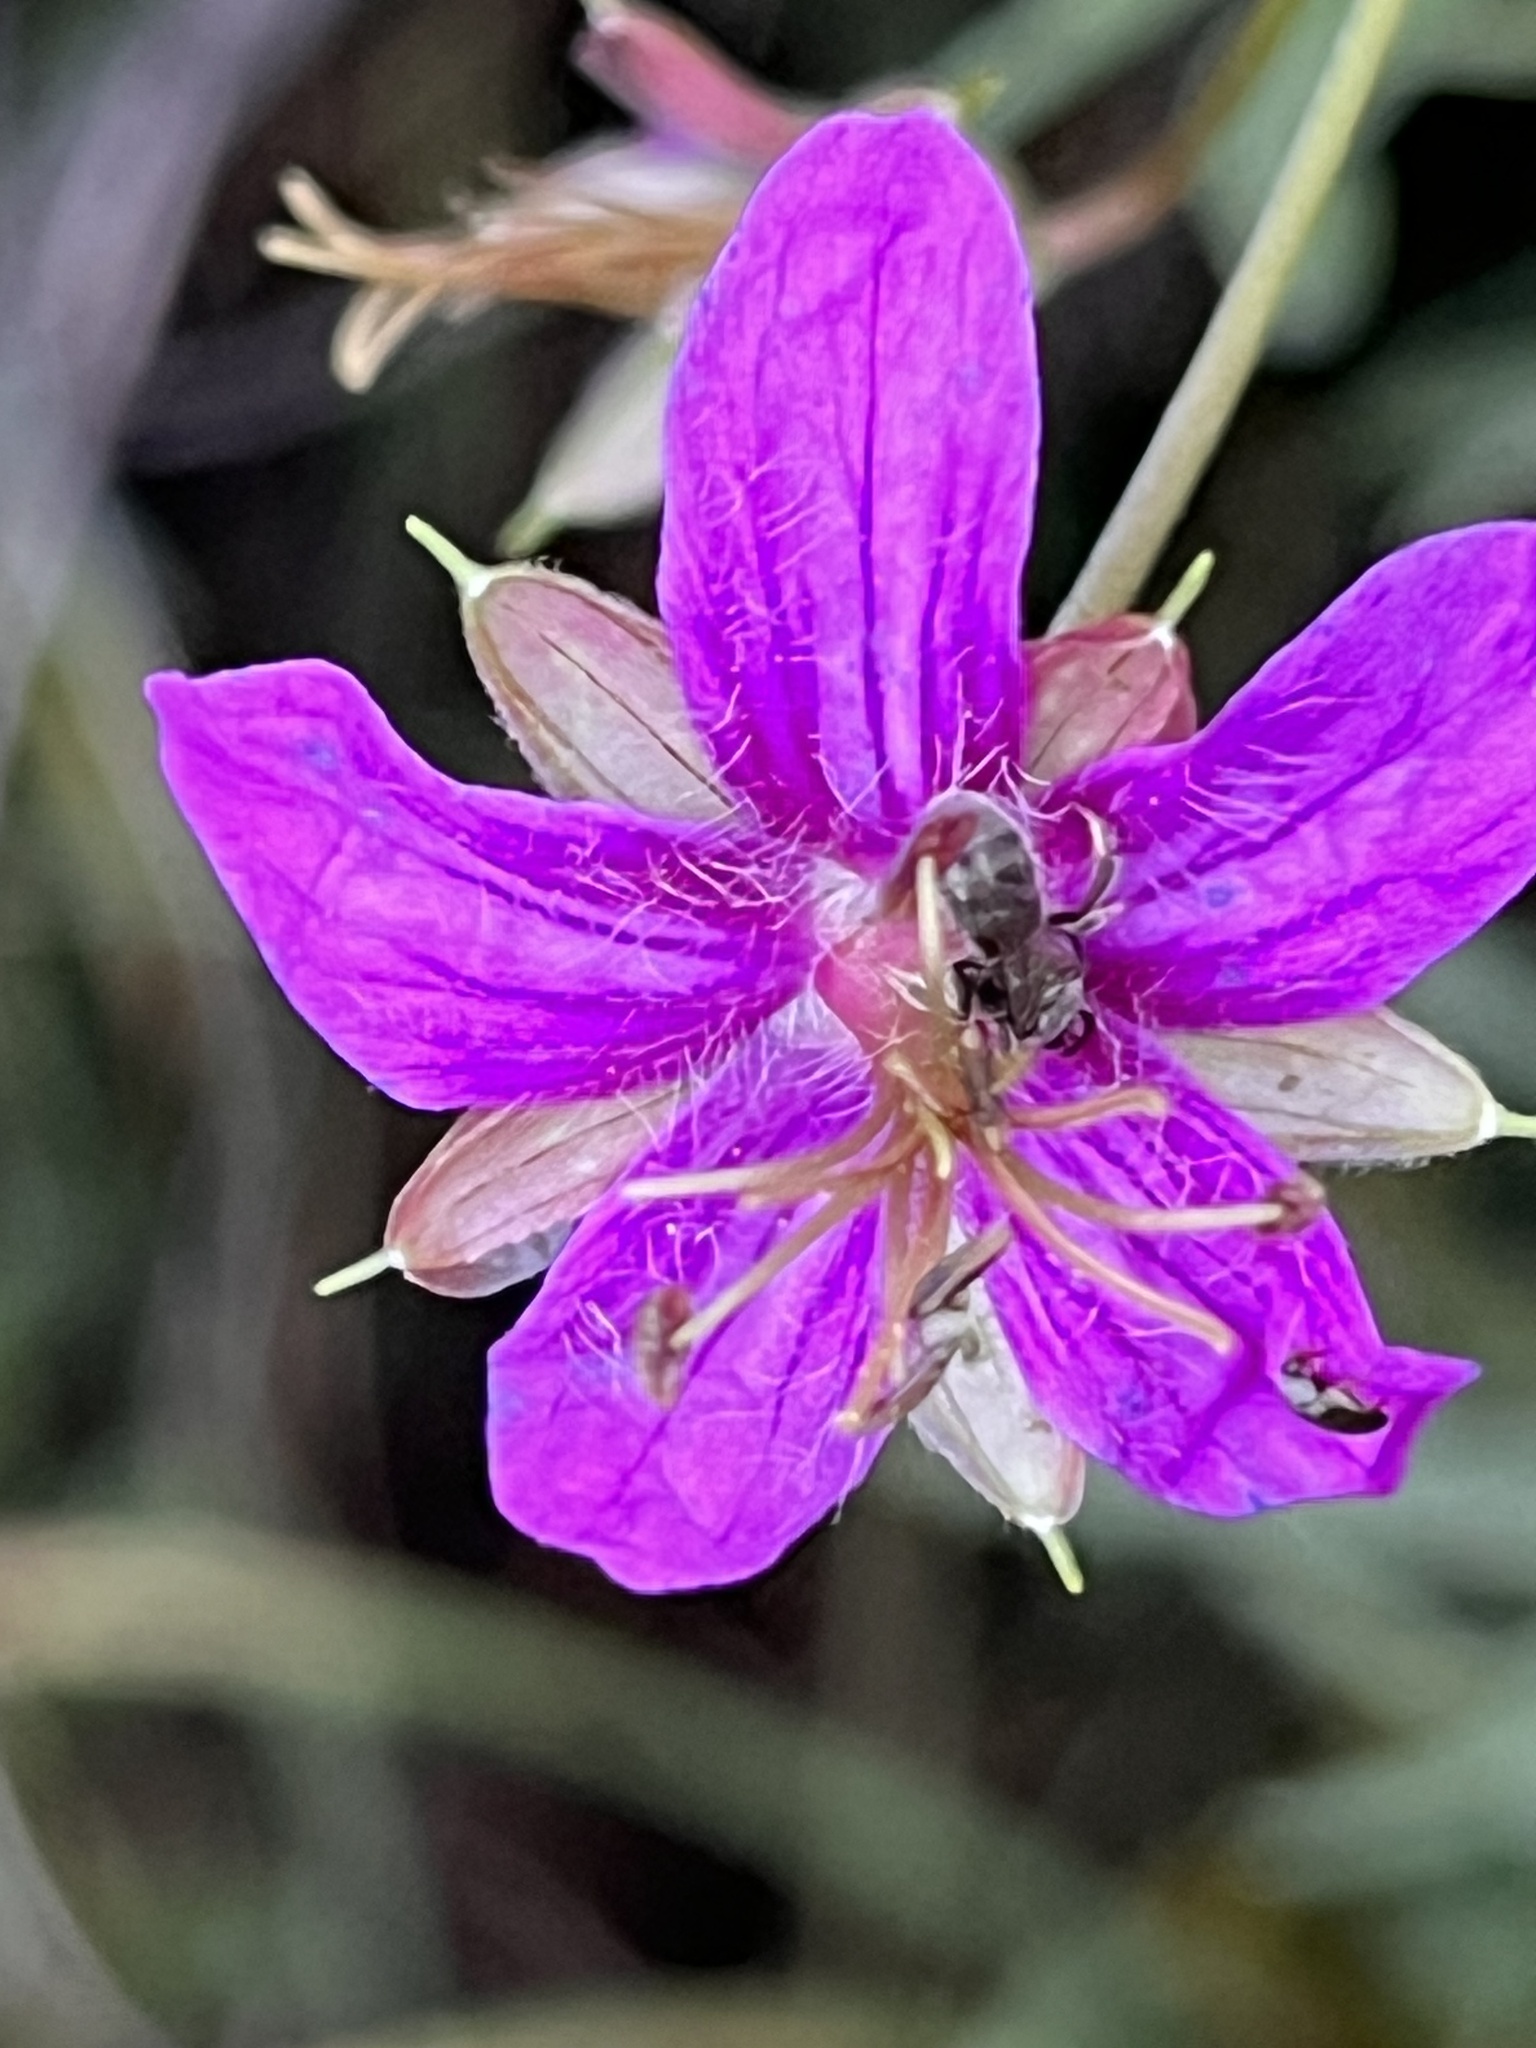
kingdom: Plantae
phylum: Tracheophyta
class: Magnoliopsida
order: Geraniales
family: Geraniaceae
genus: Geranium
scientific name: Geranium caespitosum
